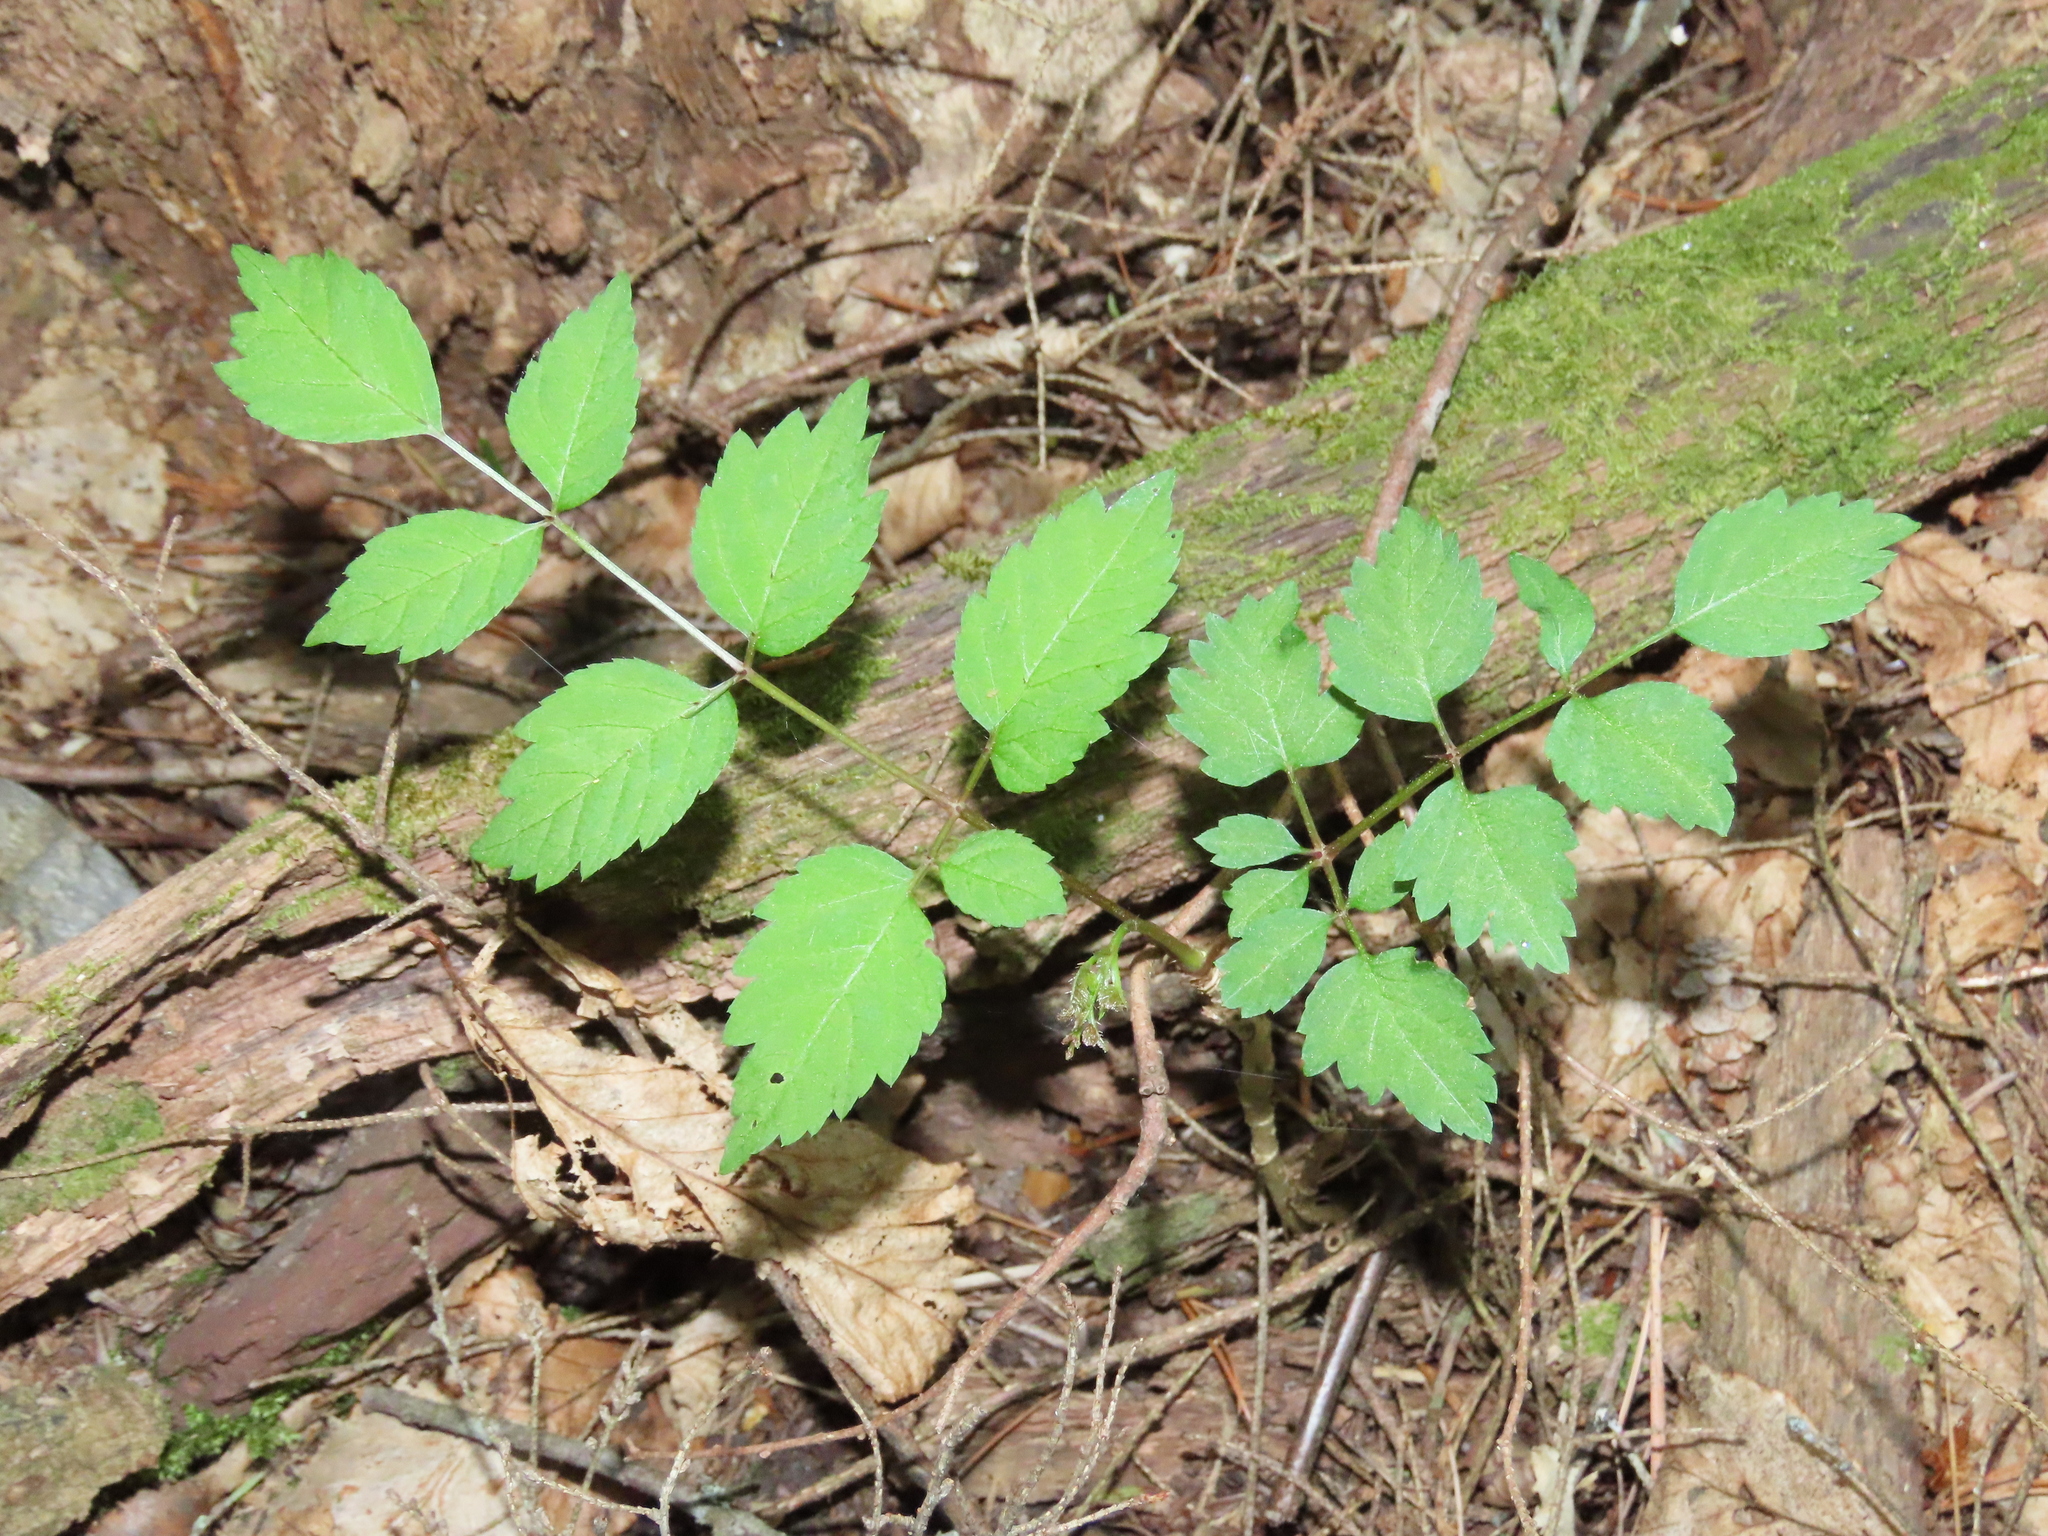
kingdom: Plantae
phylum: Tracheophyta
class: Magnoliopsida
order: Apiales
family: Araliaceae
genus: Aralia
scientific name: Aralia elata
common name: Japanese angelica-tree
